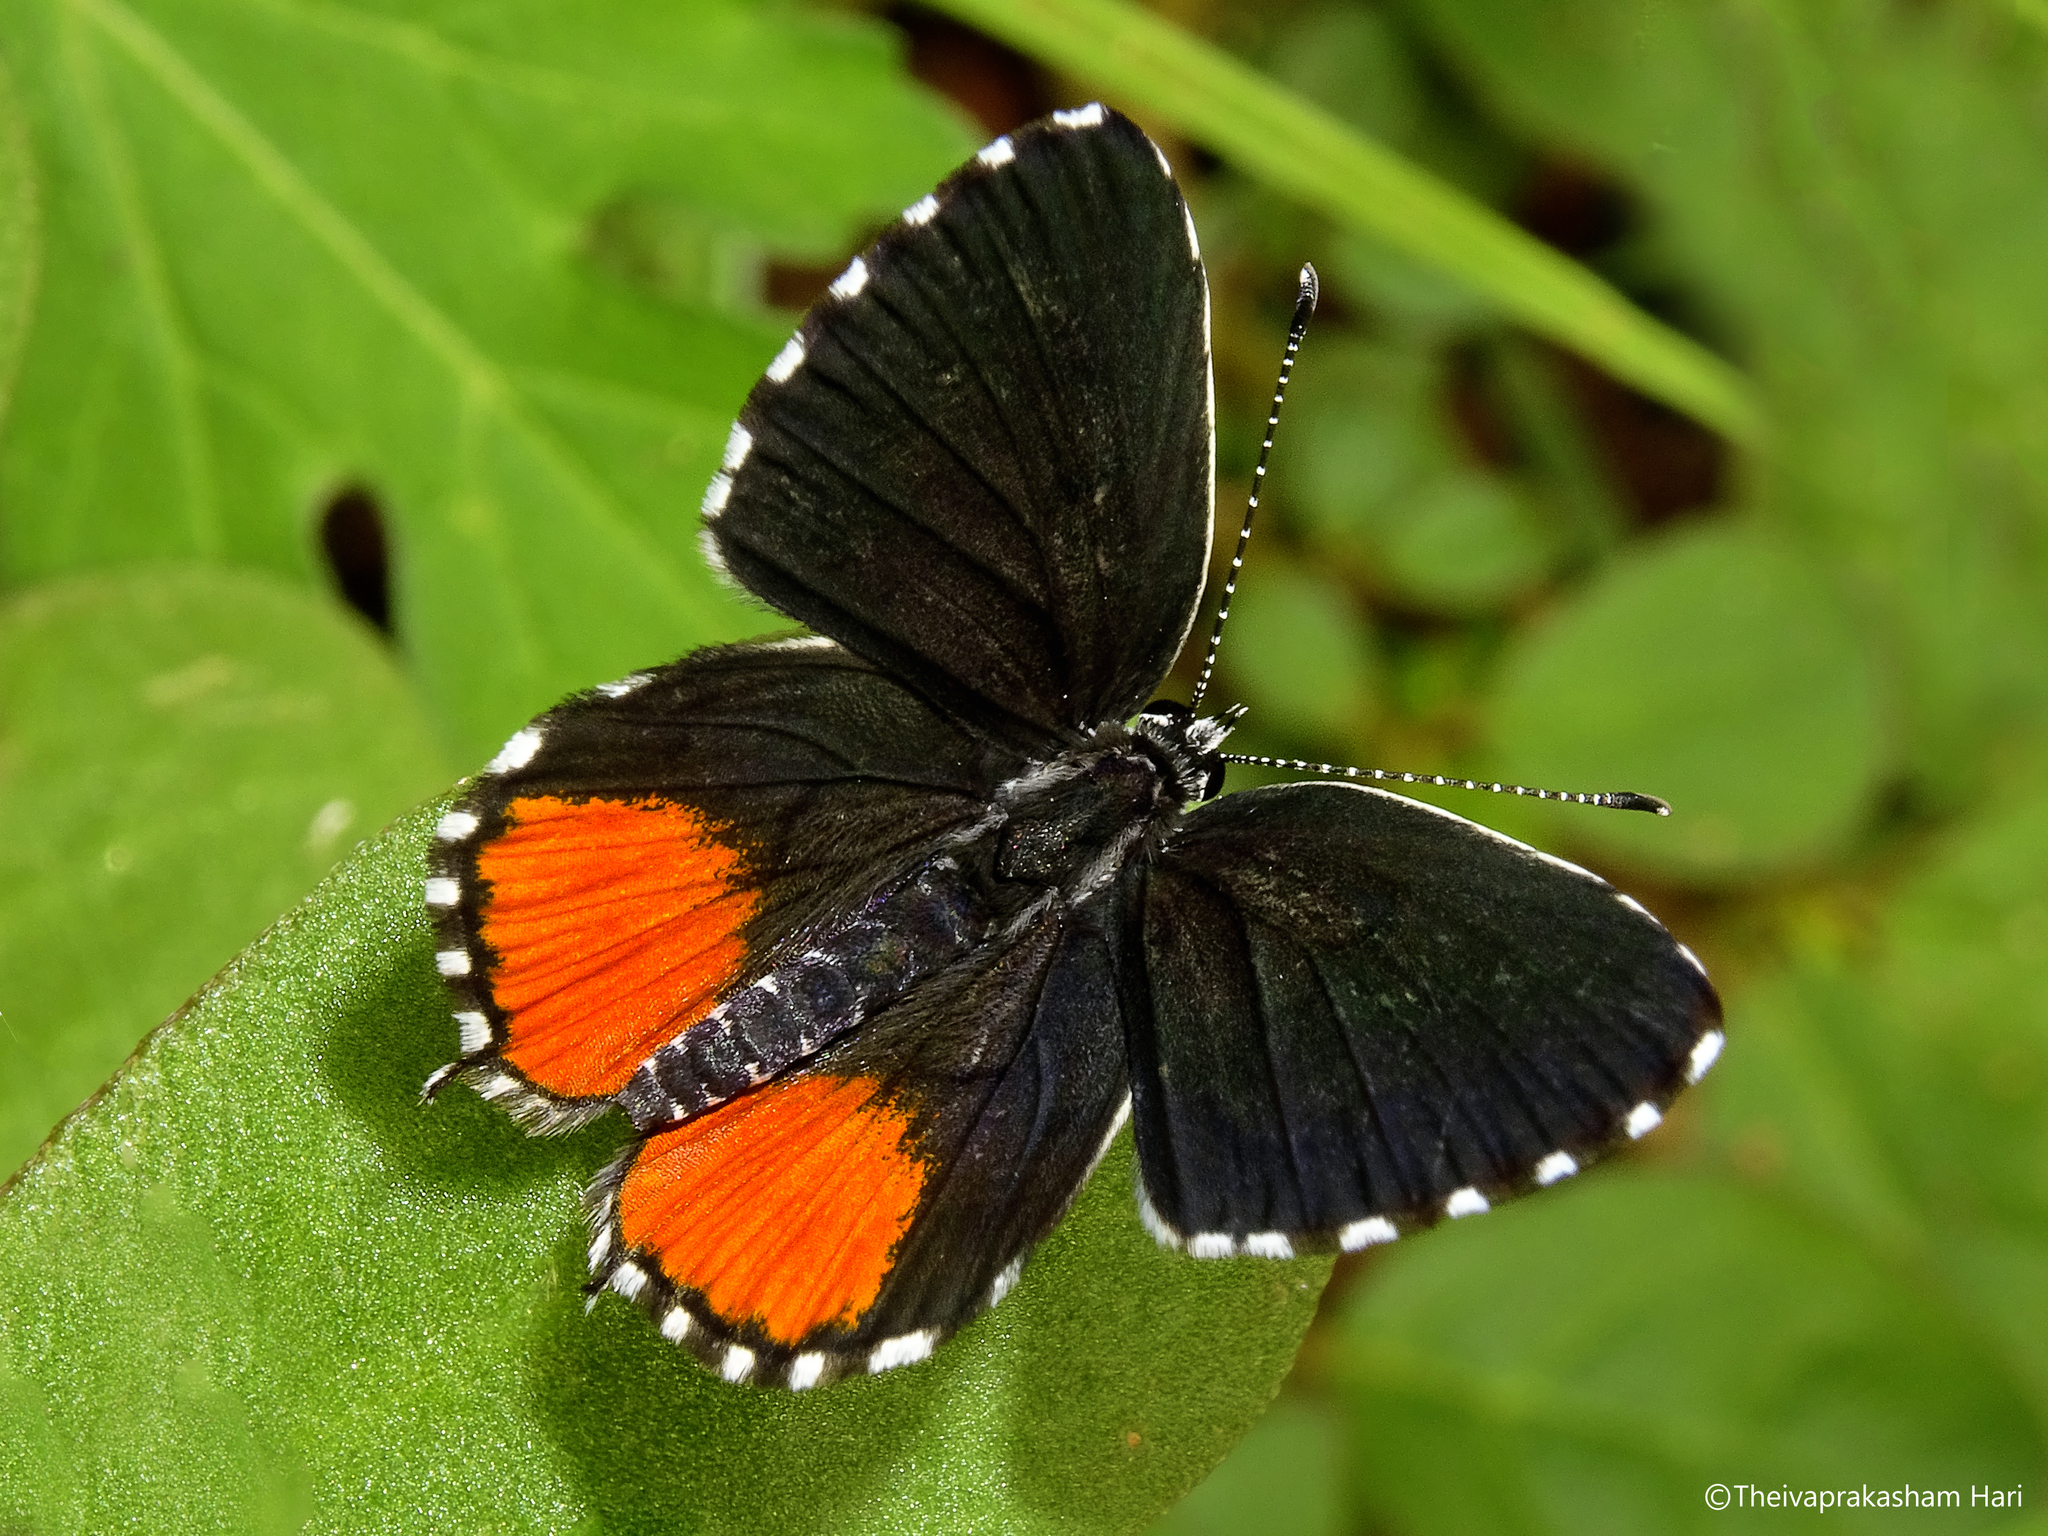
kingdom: Animalia
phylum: Arthropoda
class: Insecta
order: Lepidoptera
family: Lycaenidae
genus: Talicada
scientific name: Talicada nyseus
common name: Red pierrot
